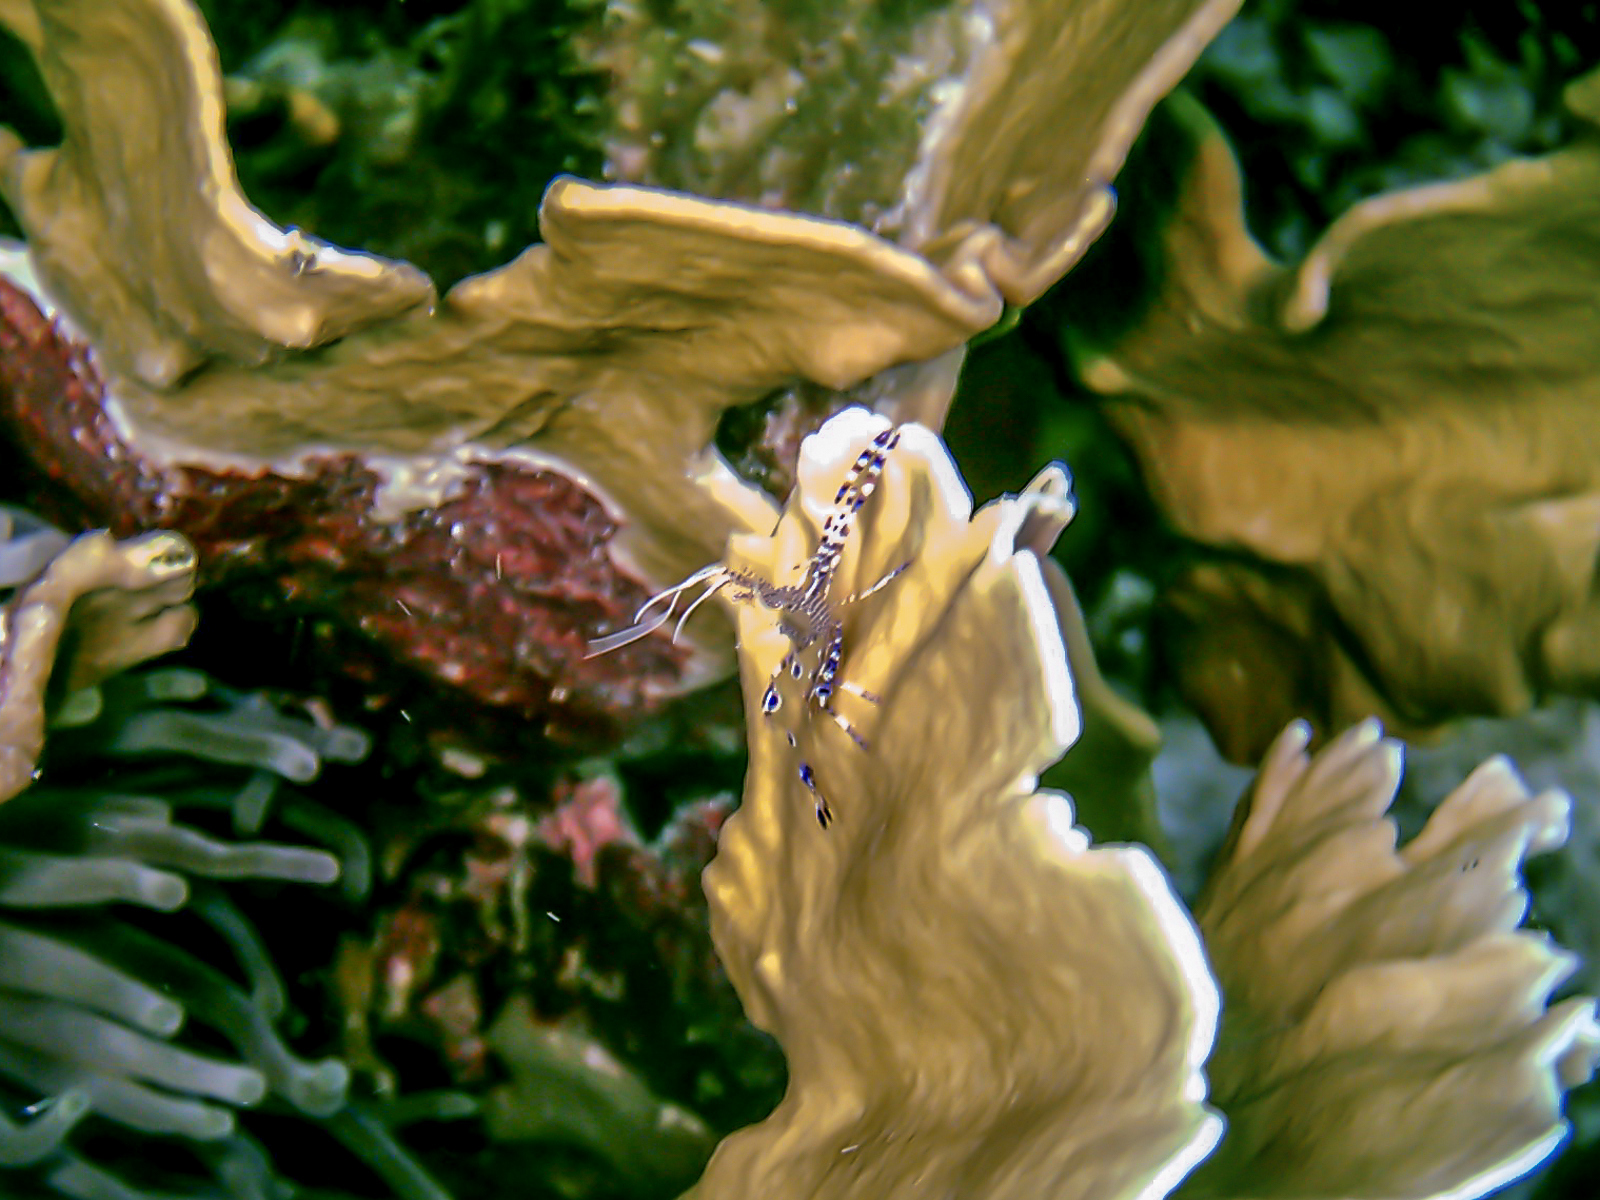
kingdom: Animalia
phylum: Cnidaria
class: Hydrozoa
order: Anthoathecata
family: Milleporidae
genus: Millepora
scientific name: Millepora complanata
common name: Bladed fire coral
